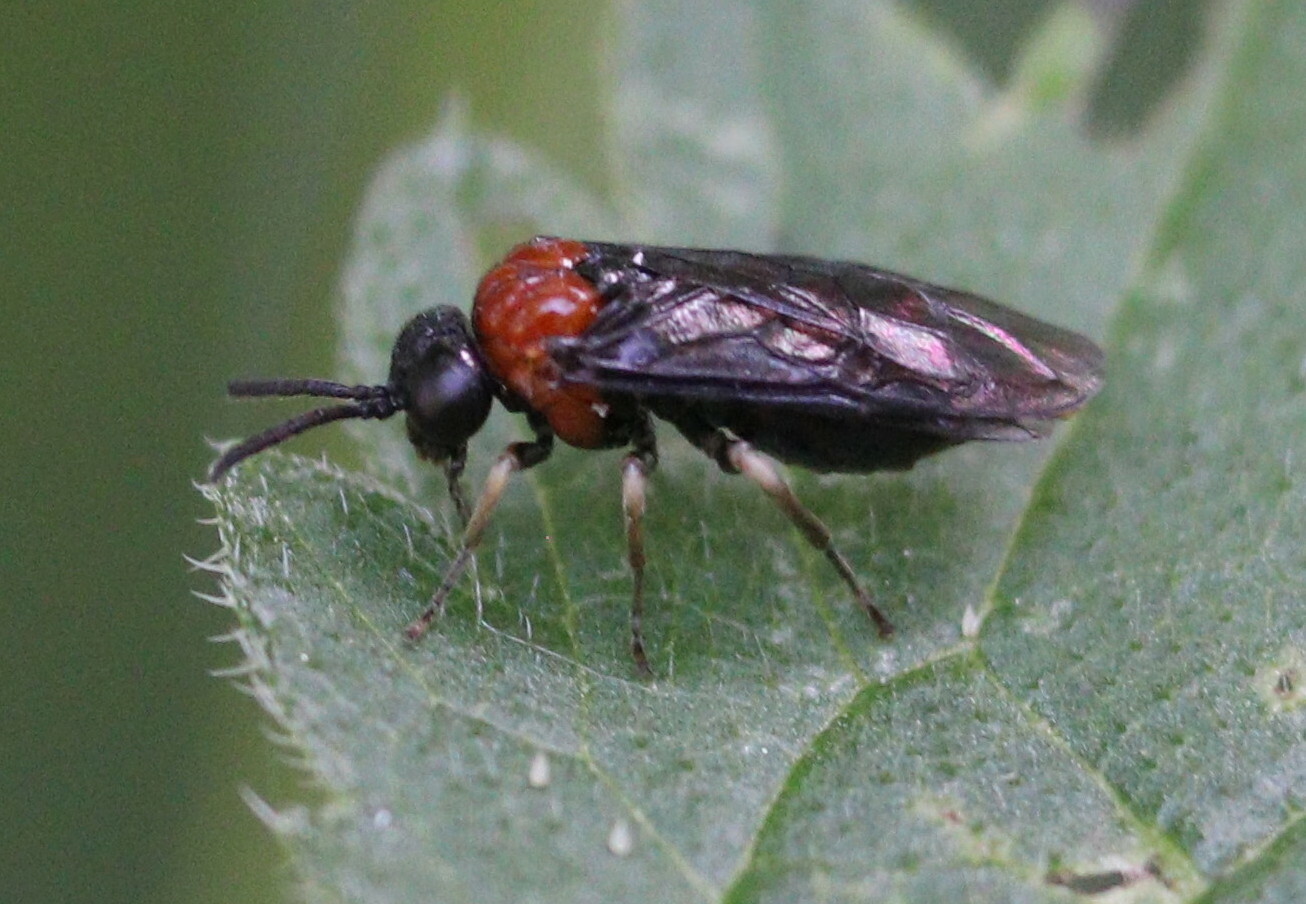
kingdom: Animalia
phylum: Arthropoda
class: Insecta
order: Hymenoptera
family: Tenthredinidae
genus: Eutomostethus
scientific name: Eutomostethus ephippium
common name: Tenthredid wasp
